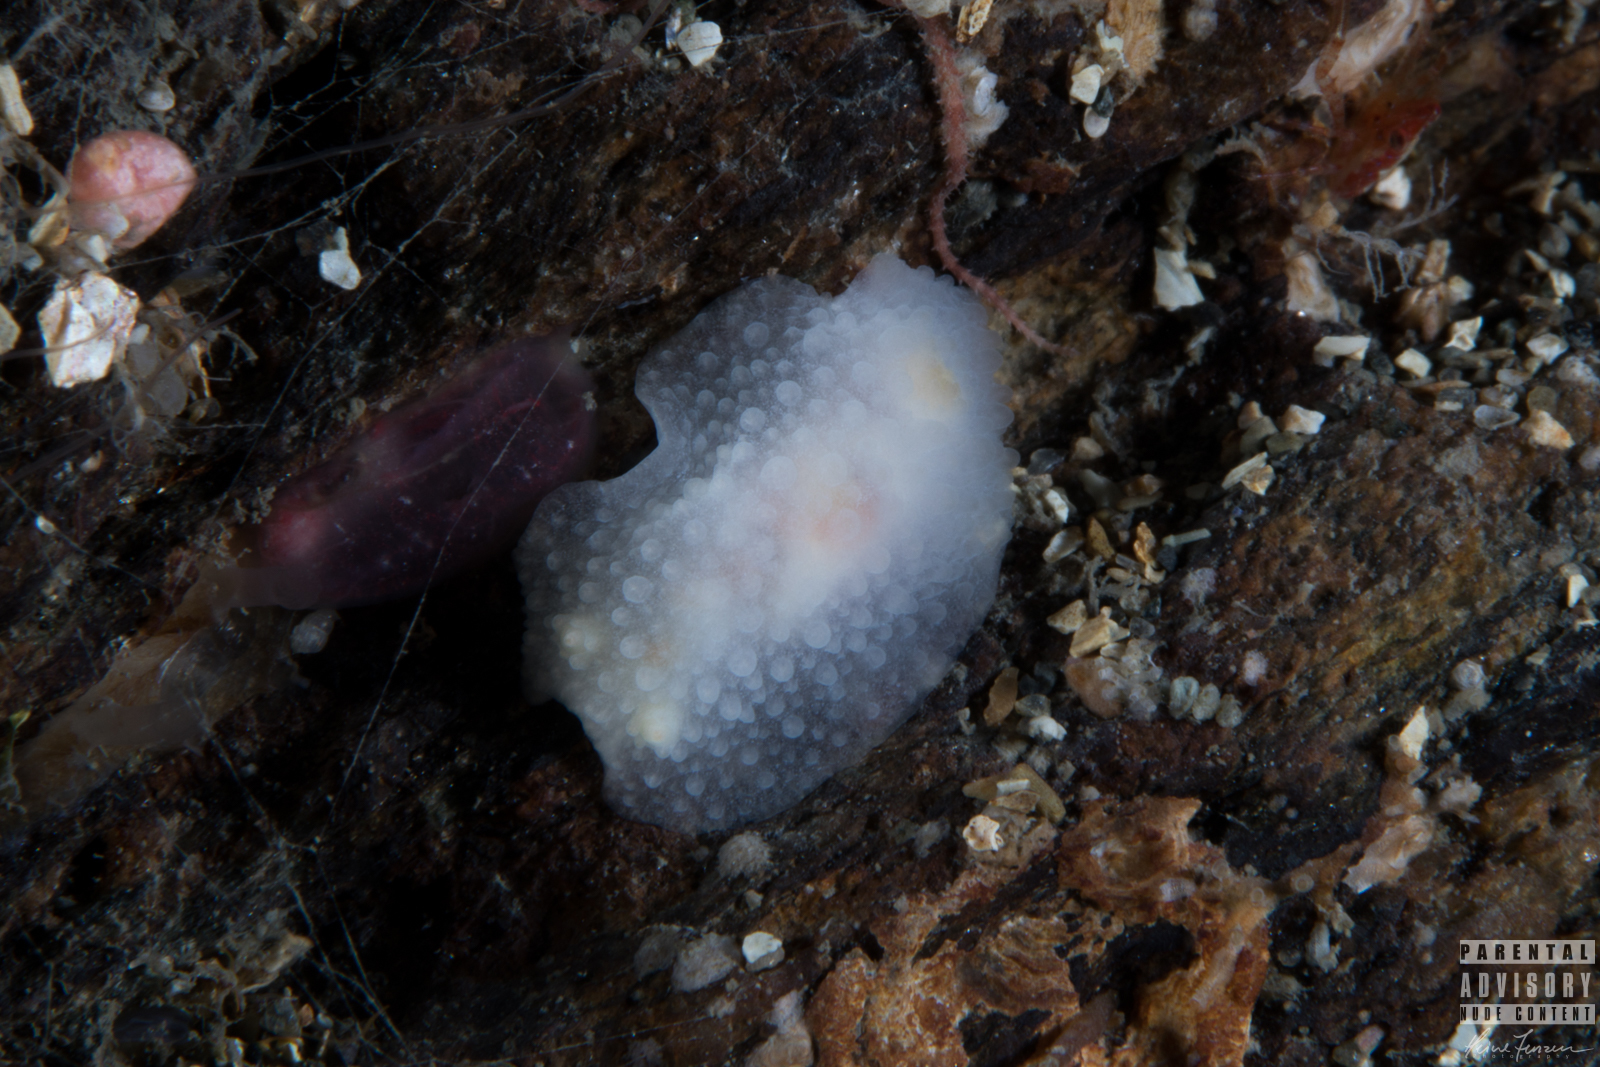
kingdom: Animalia
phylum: Mollusca
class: Gastropoda
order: Nudibranchia
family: Cadlinidae
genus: Aldisa
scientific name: Aldisa zetlandica
